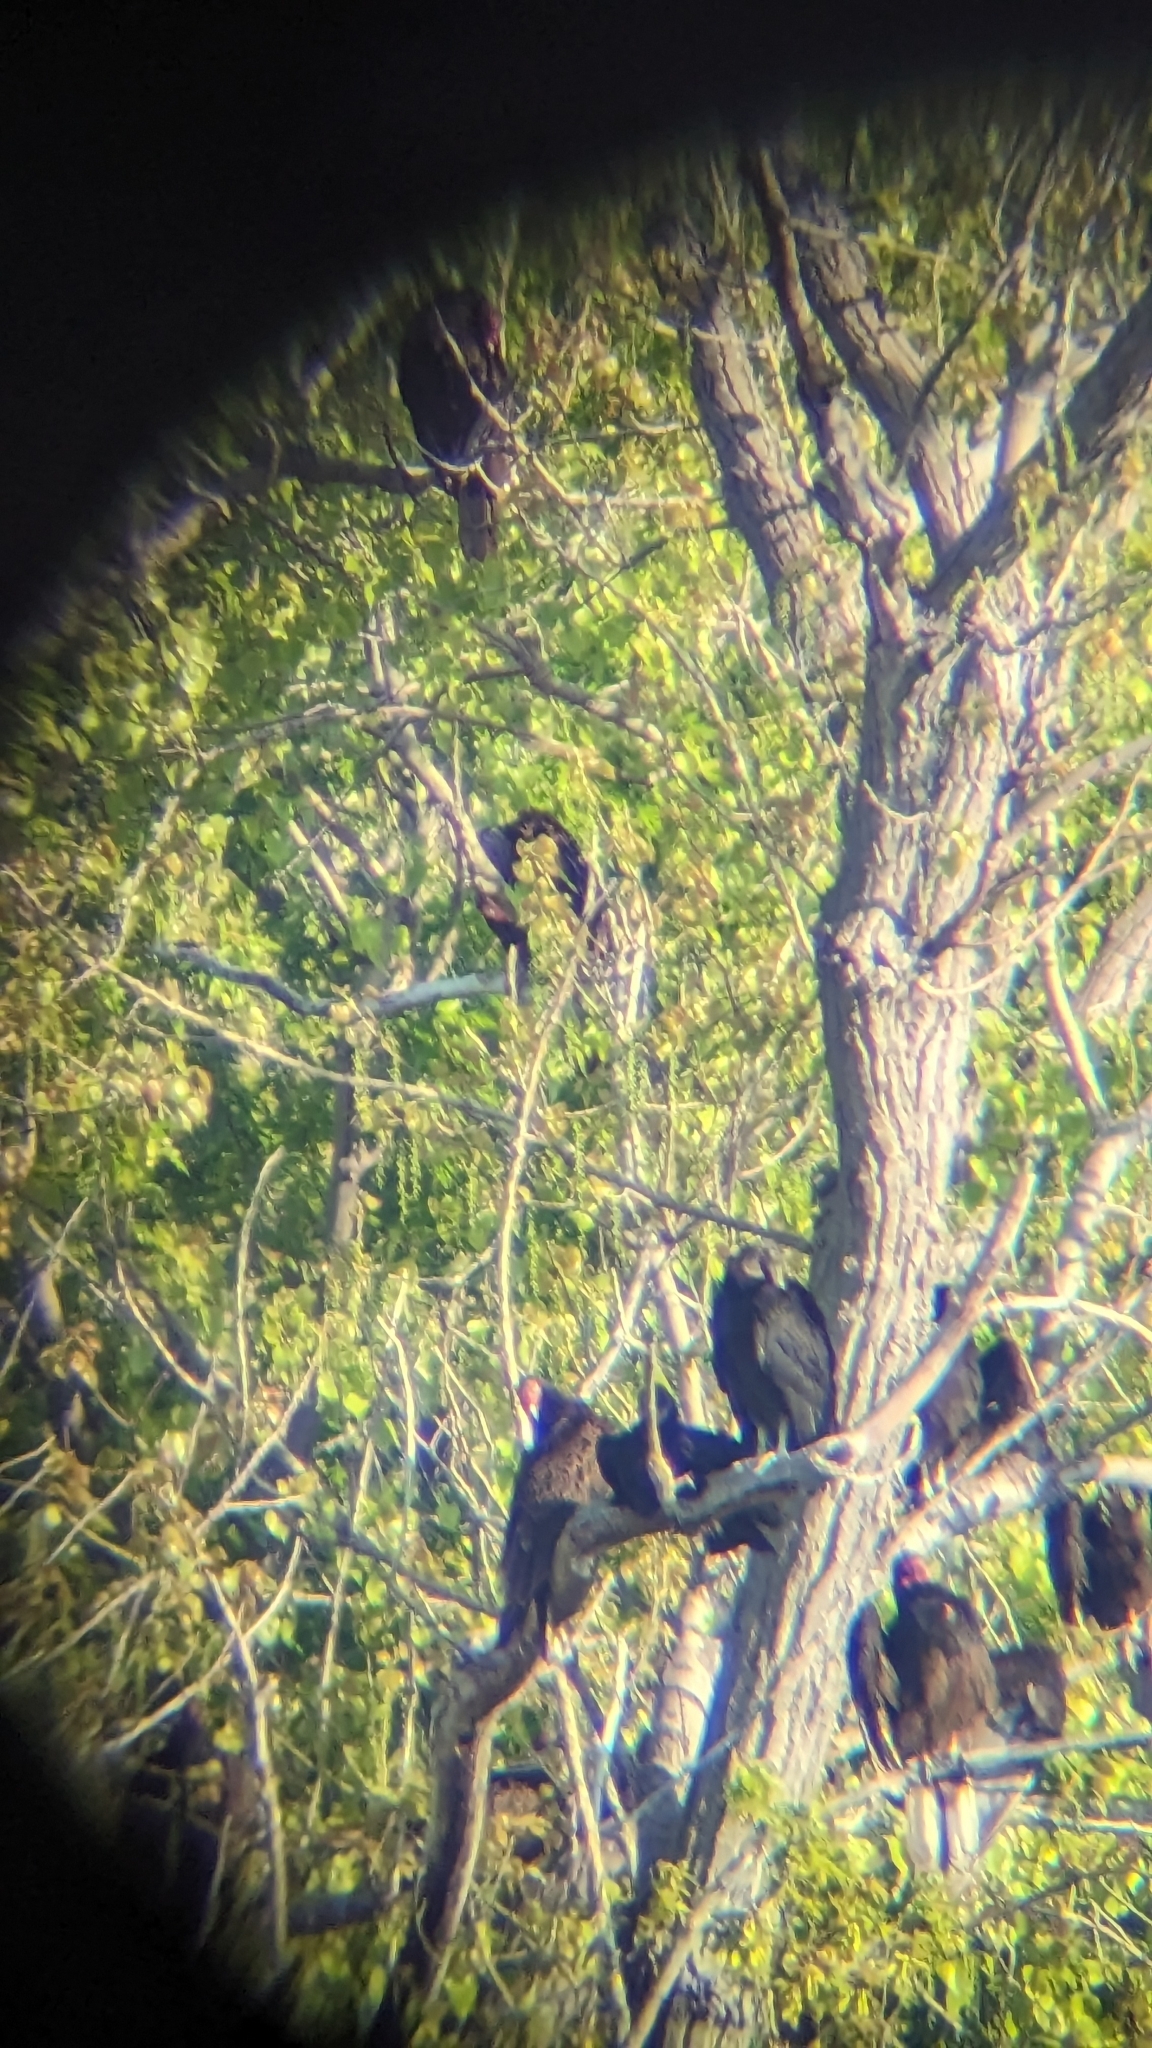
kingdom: Animalia
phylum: Chordata
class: Aves
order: Accipitriformes
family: Cathartidae
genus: Cathartes
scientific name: Cathartes aura
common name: Turkey vulture
